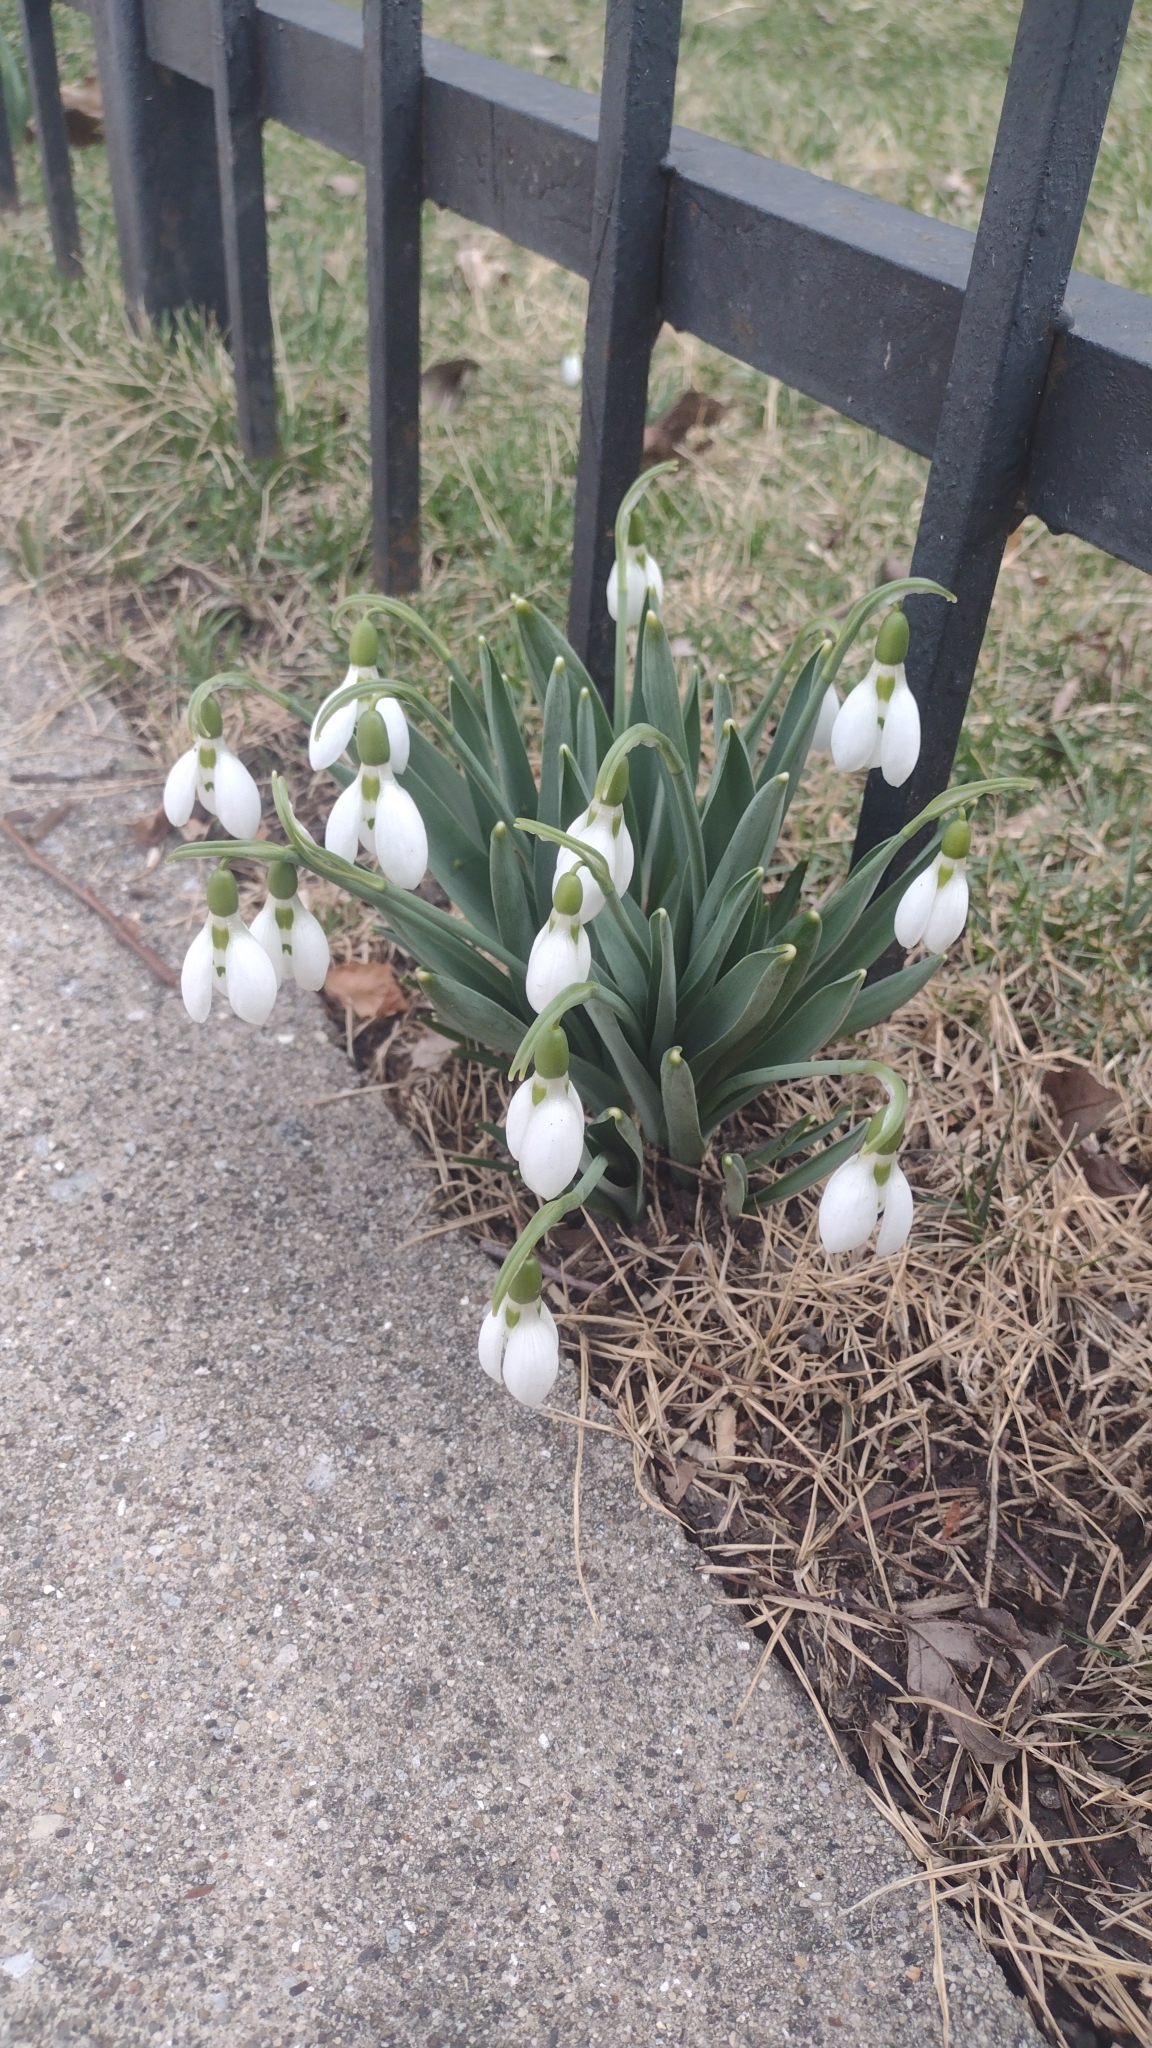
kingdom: Plantae
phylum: Tracheophyta
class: Liliopsida
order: Asparagales
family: Amaryllidaceae
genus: Galanthus
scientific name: Galanthus elwesii
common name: Greater snowdrop
